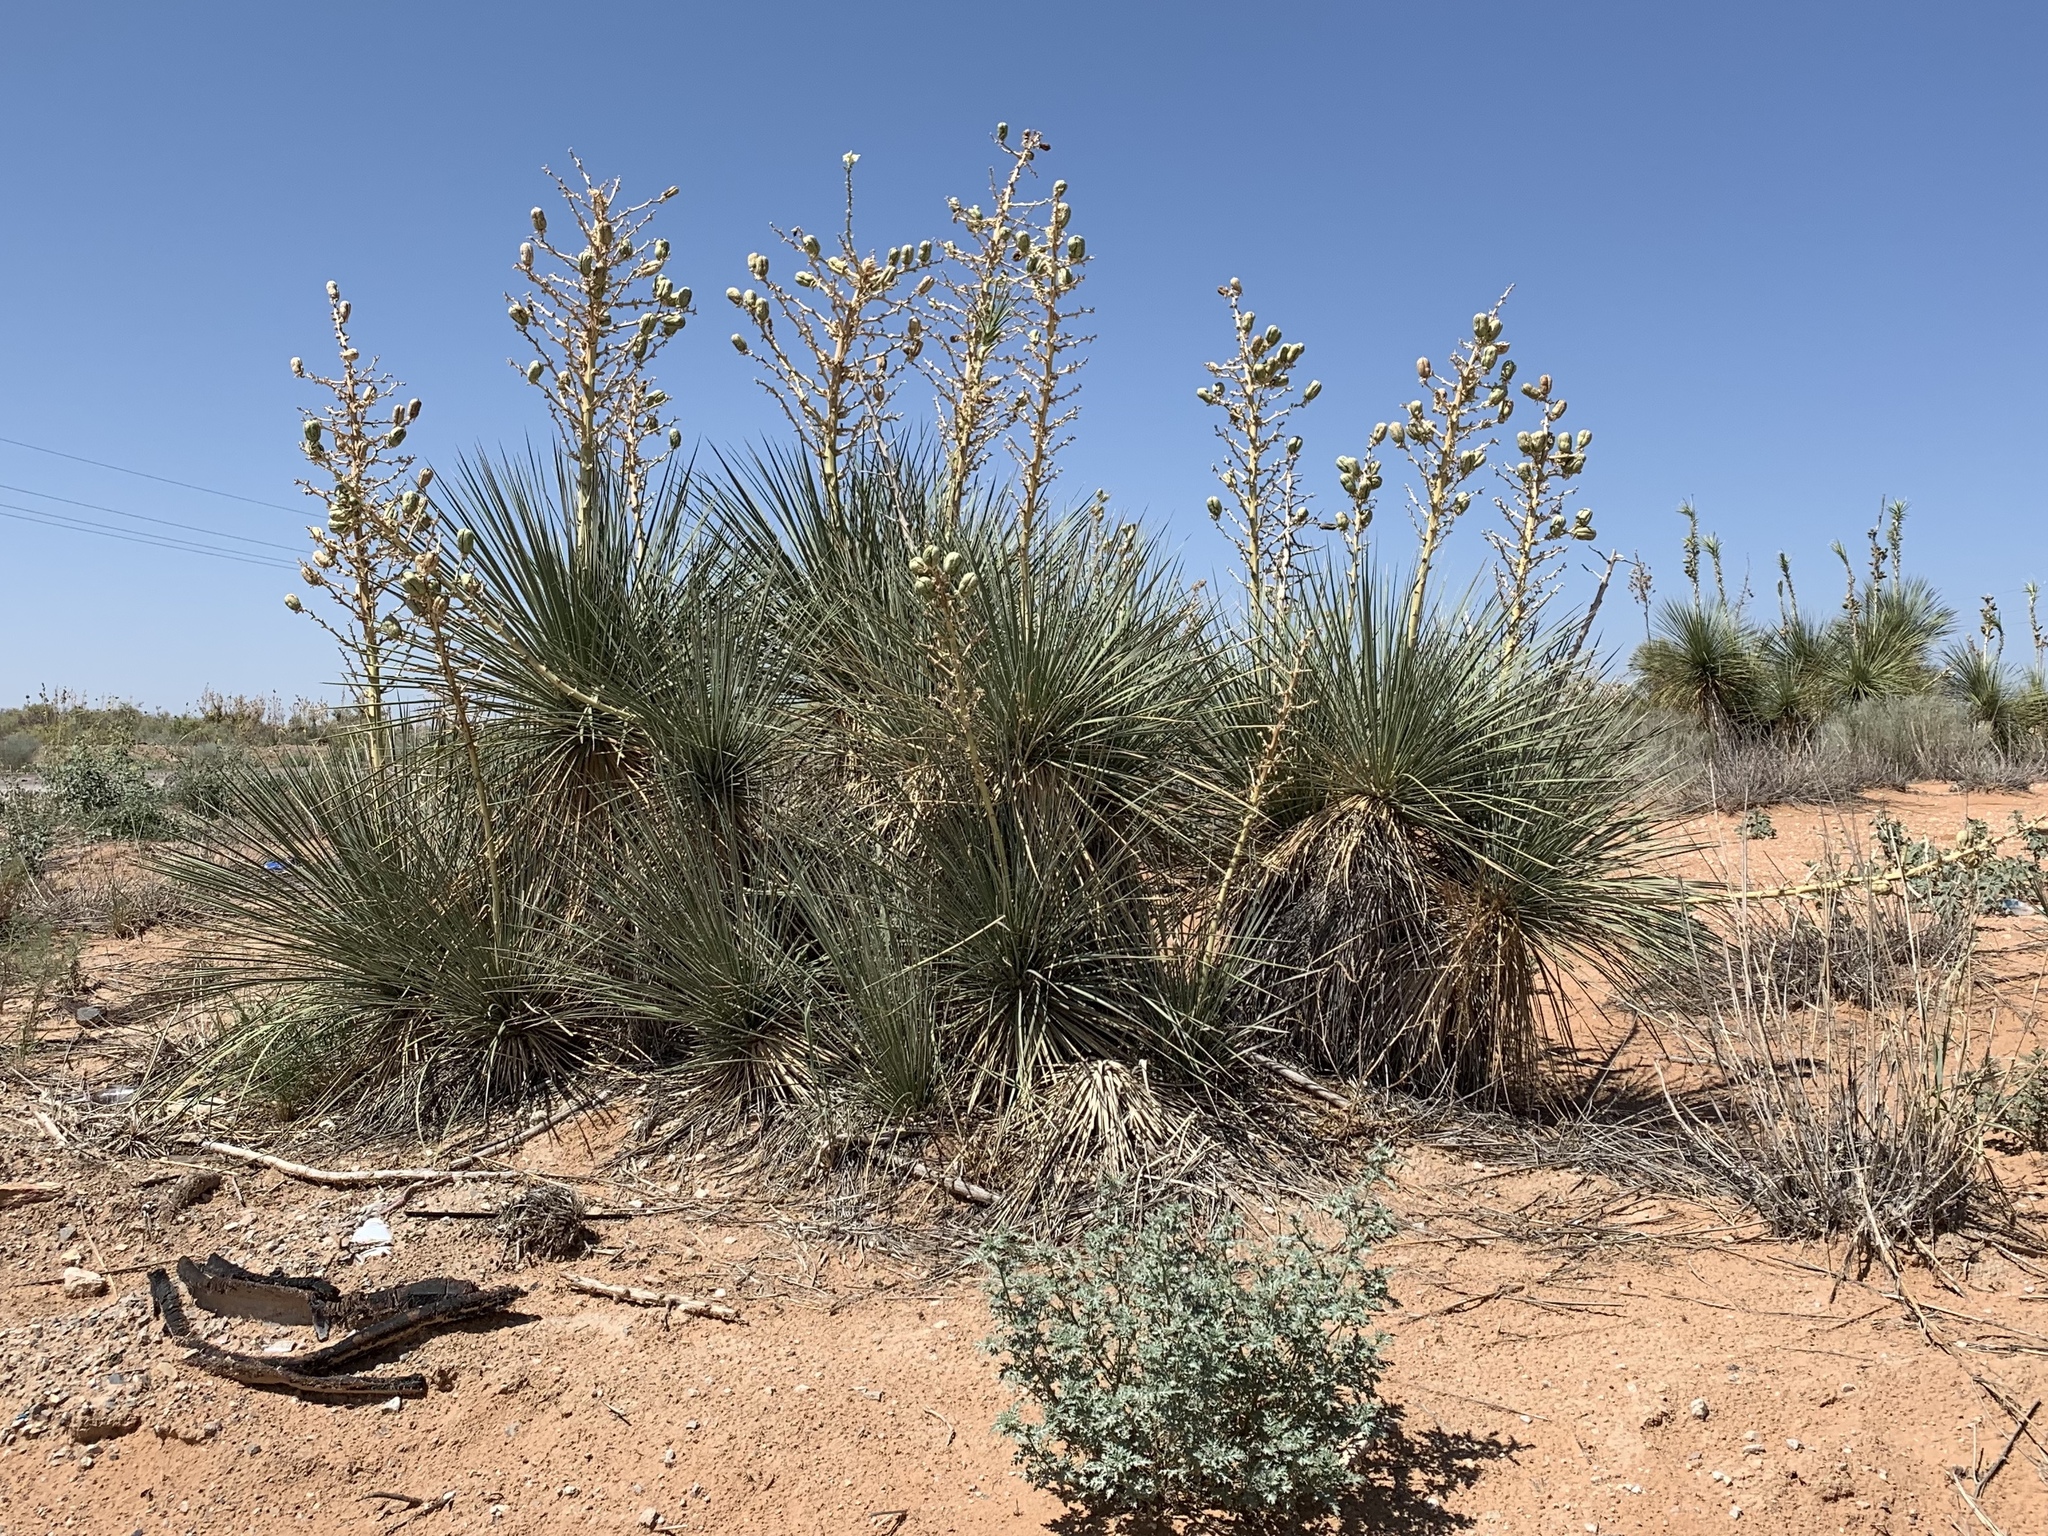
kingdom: Plantae
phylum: Tracheophyta
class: Liliopsida
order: Asparagales
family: Asparagaceae
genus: Yucca
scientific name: Yucca elata
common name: Palmella
